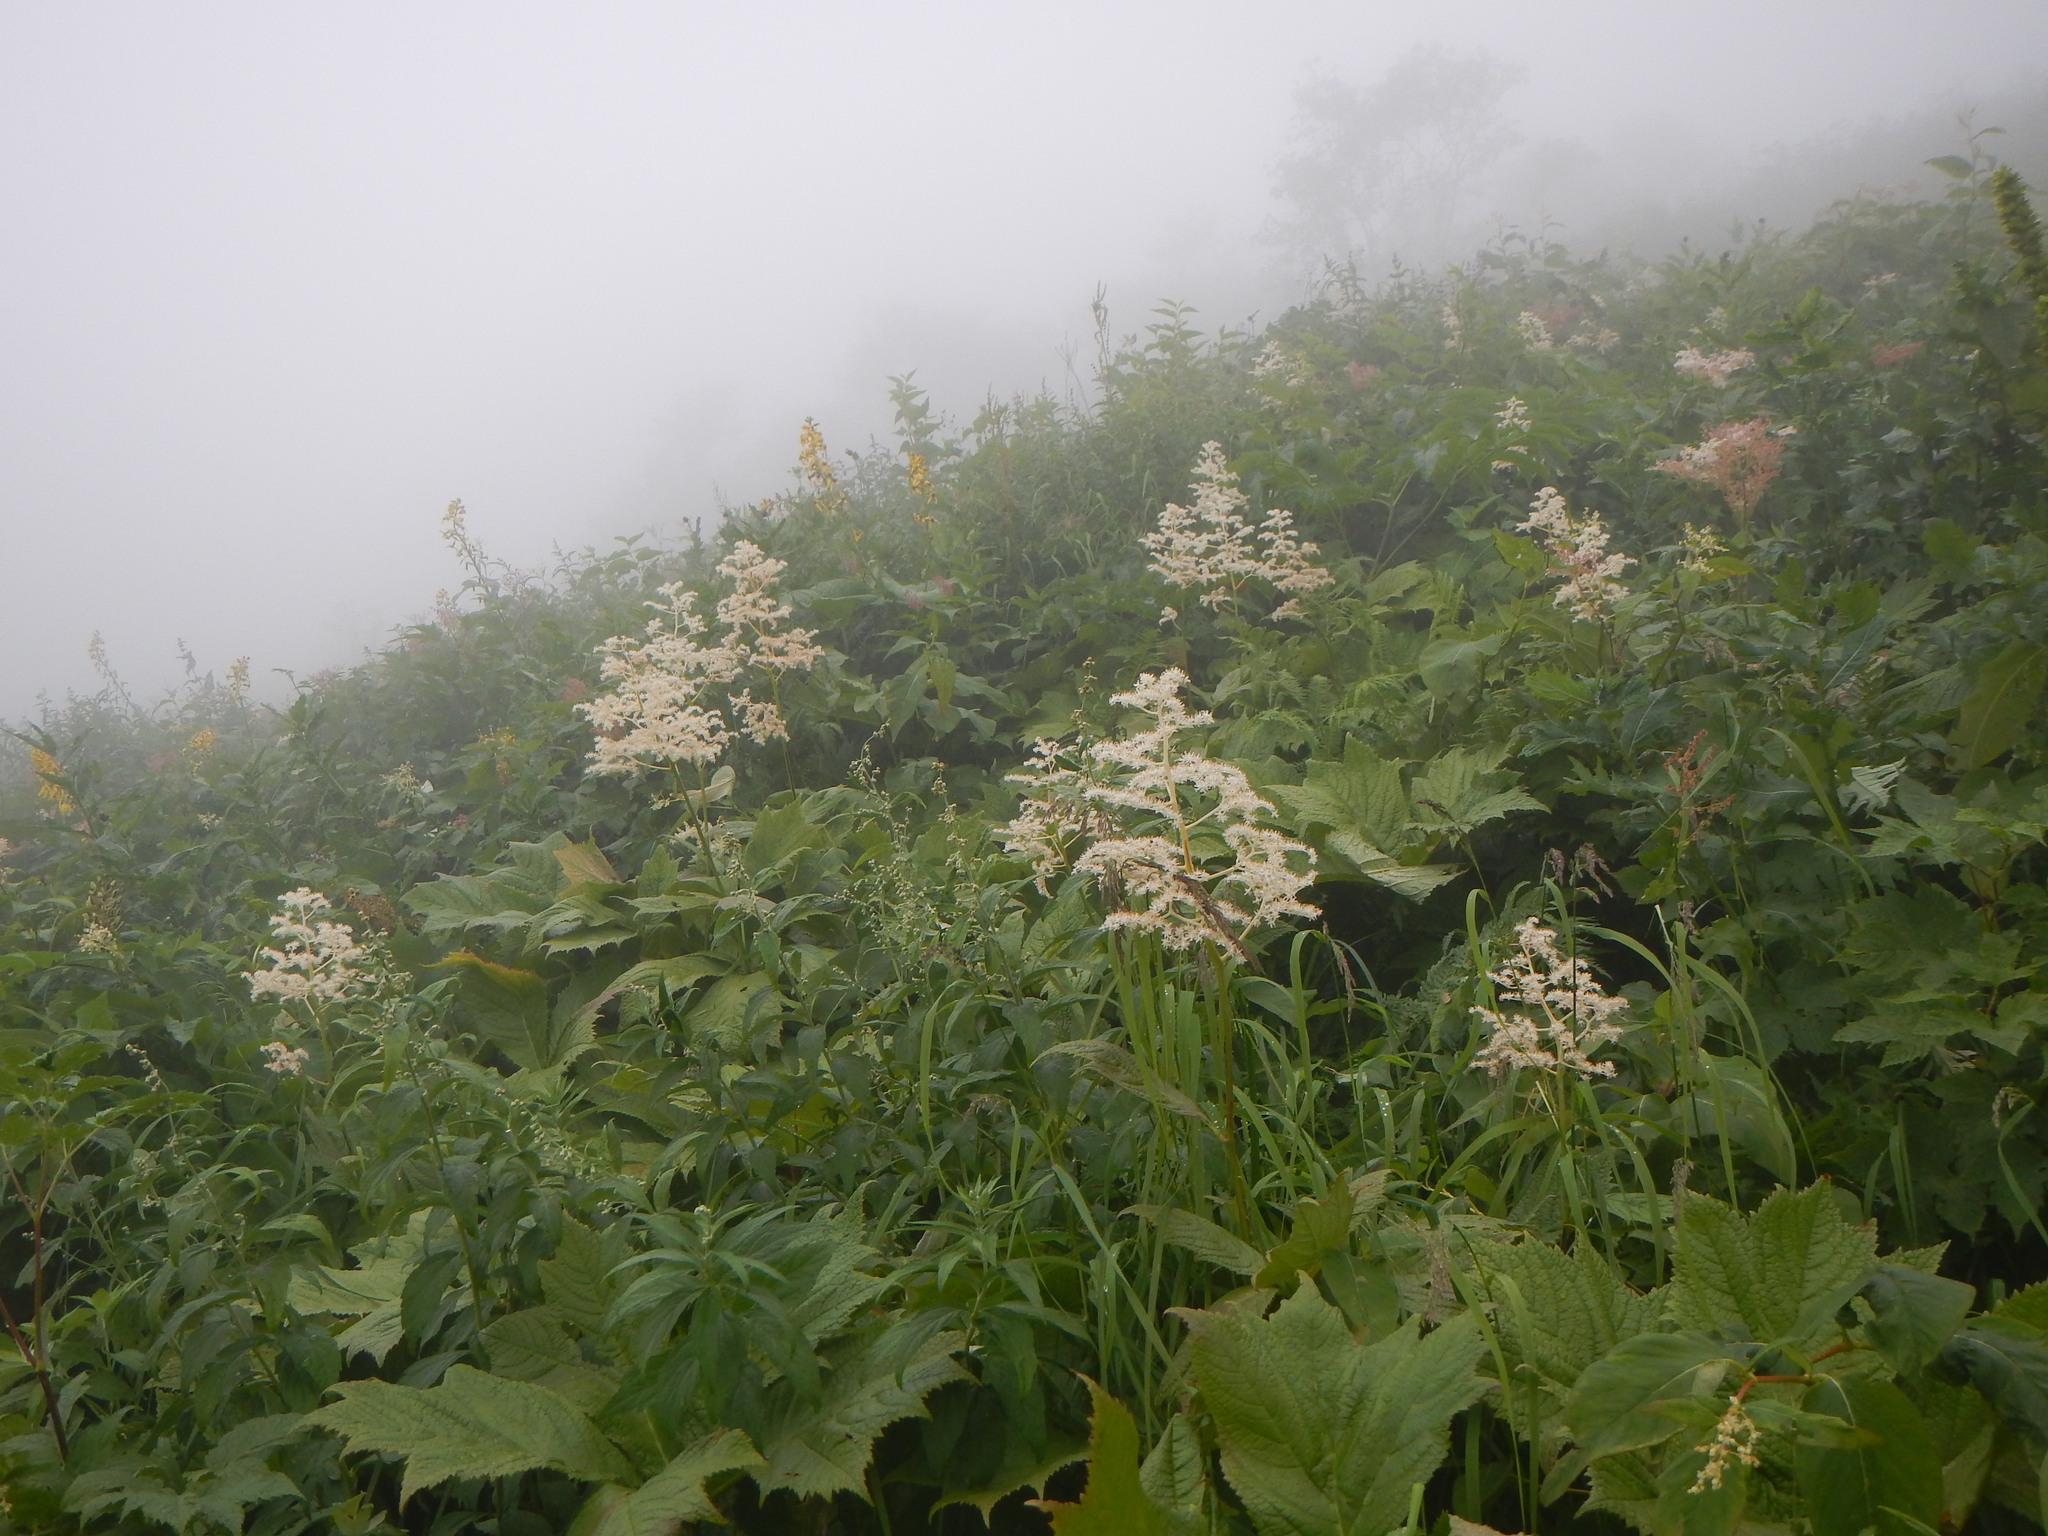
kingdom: Plantae
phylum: Tracheophyta
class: Magnoliopsida
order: Rosales
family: Rosaceae
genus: Filipendula
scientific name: Filipendula camtschatica
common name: Giant meadowsweet
